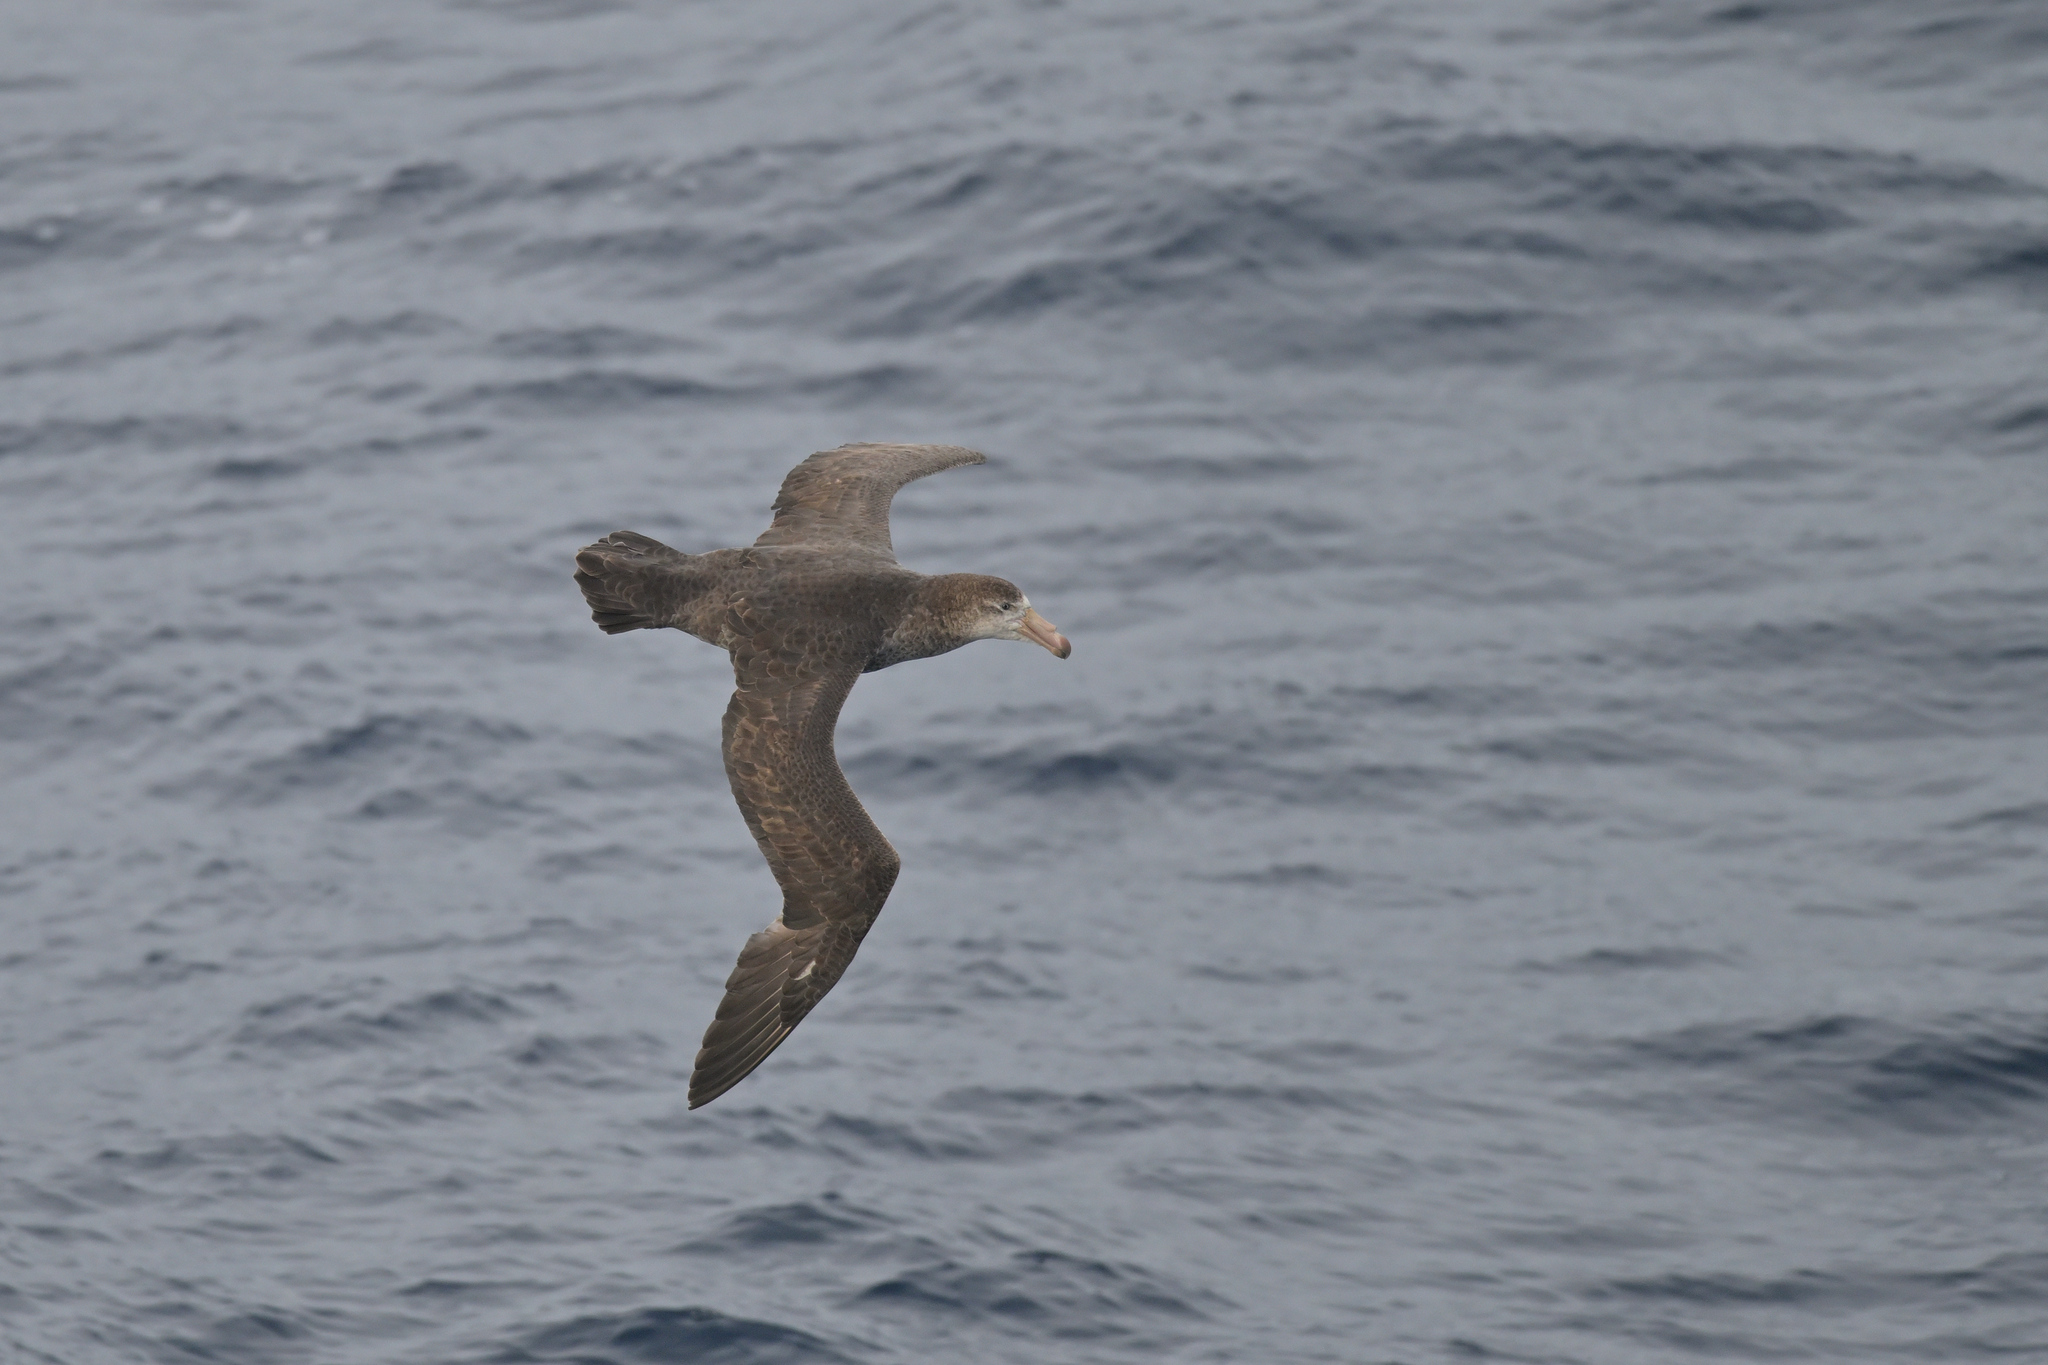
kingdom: Animalia
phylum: Chordata
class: Aves
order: Procellariiformes
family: Procellariidae
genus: Macronectes
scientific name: Macronectes halli
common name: Northern giant petrel
